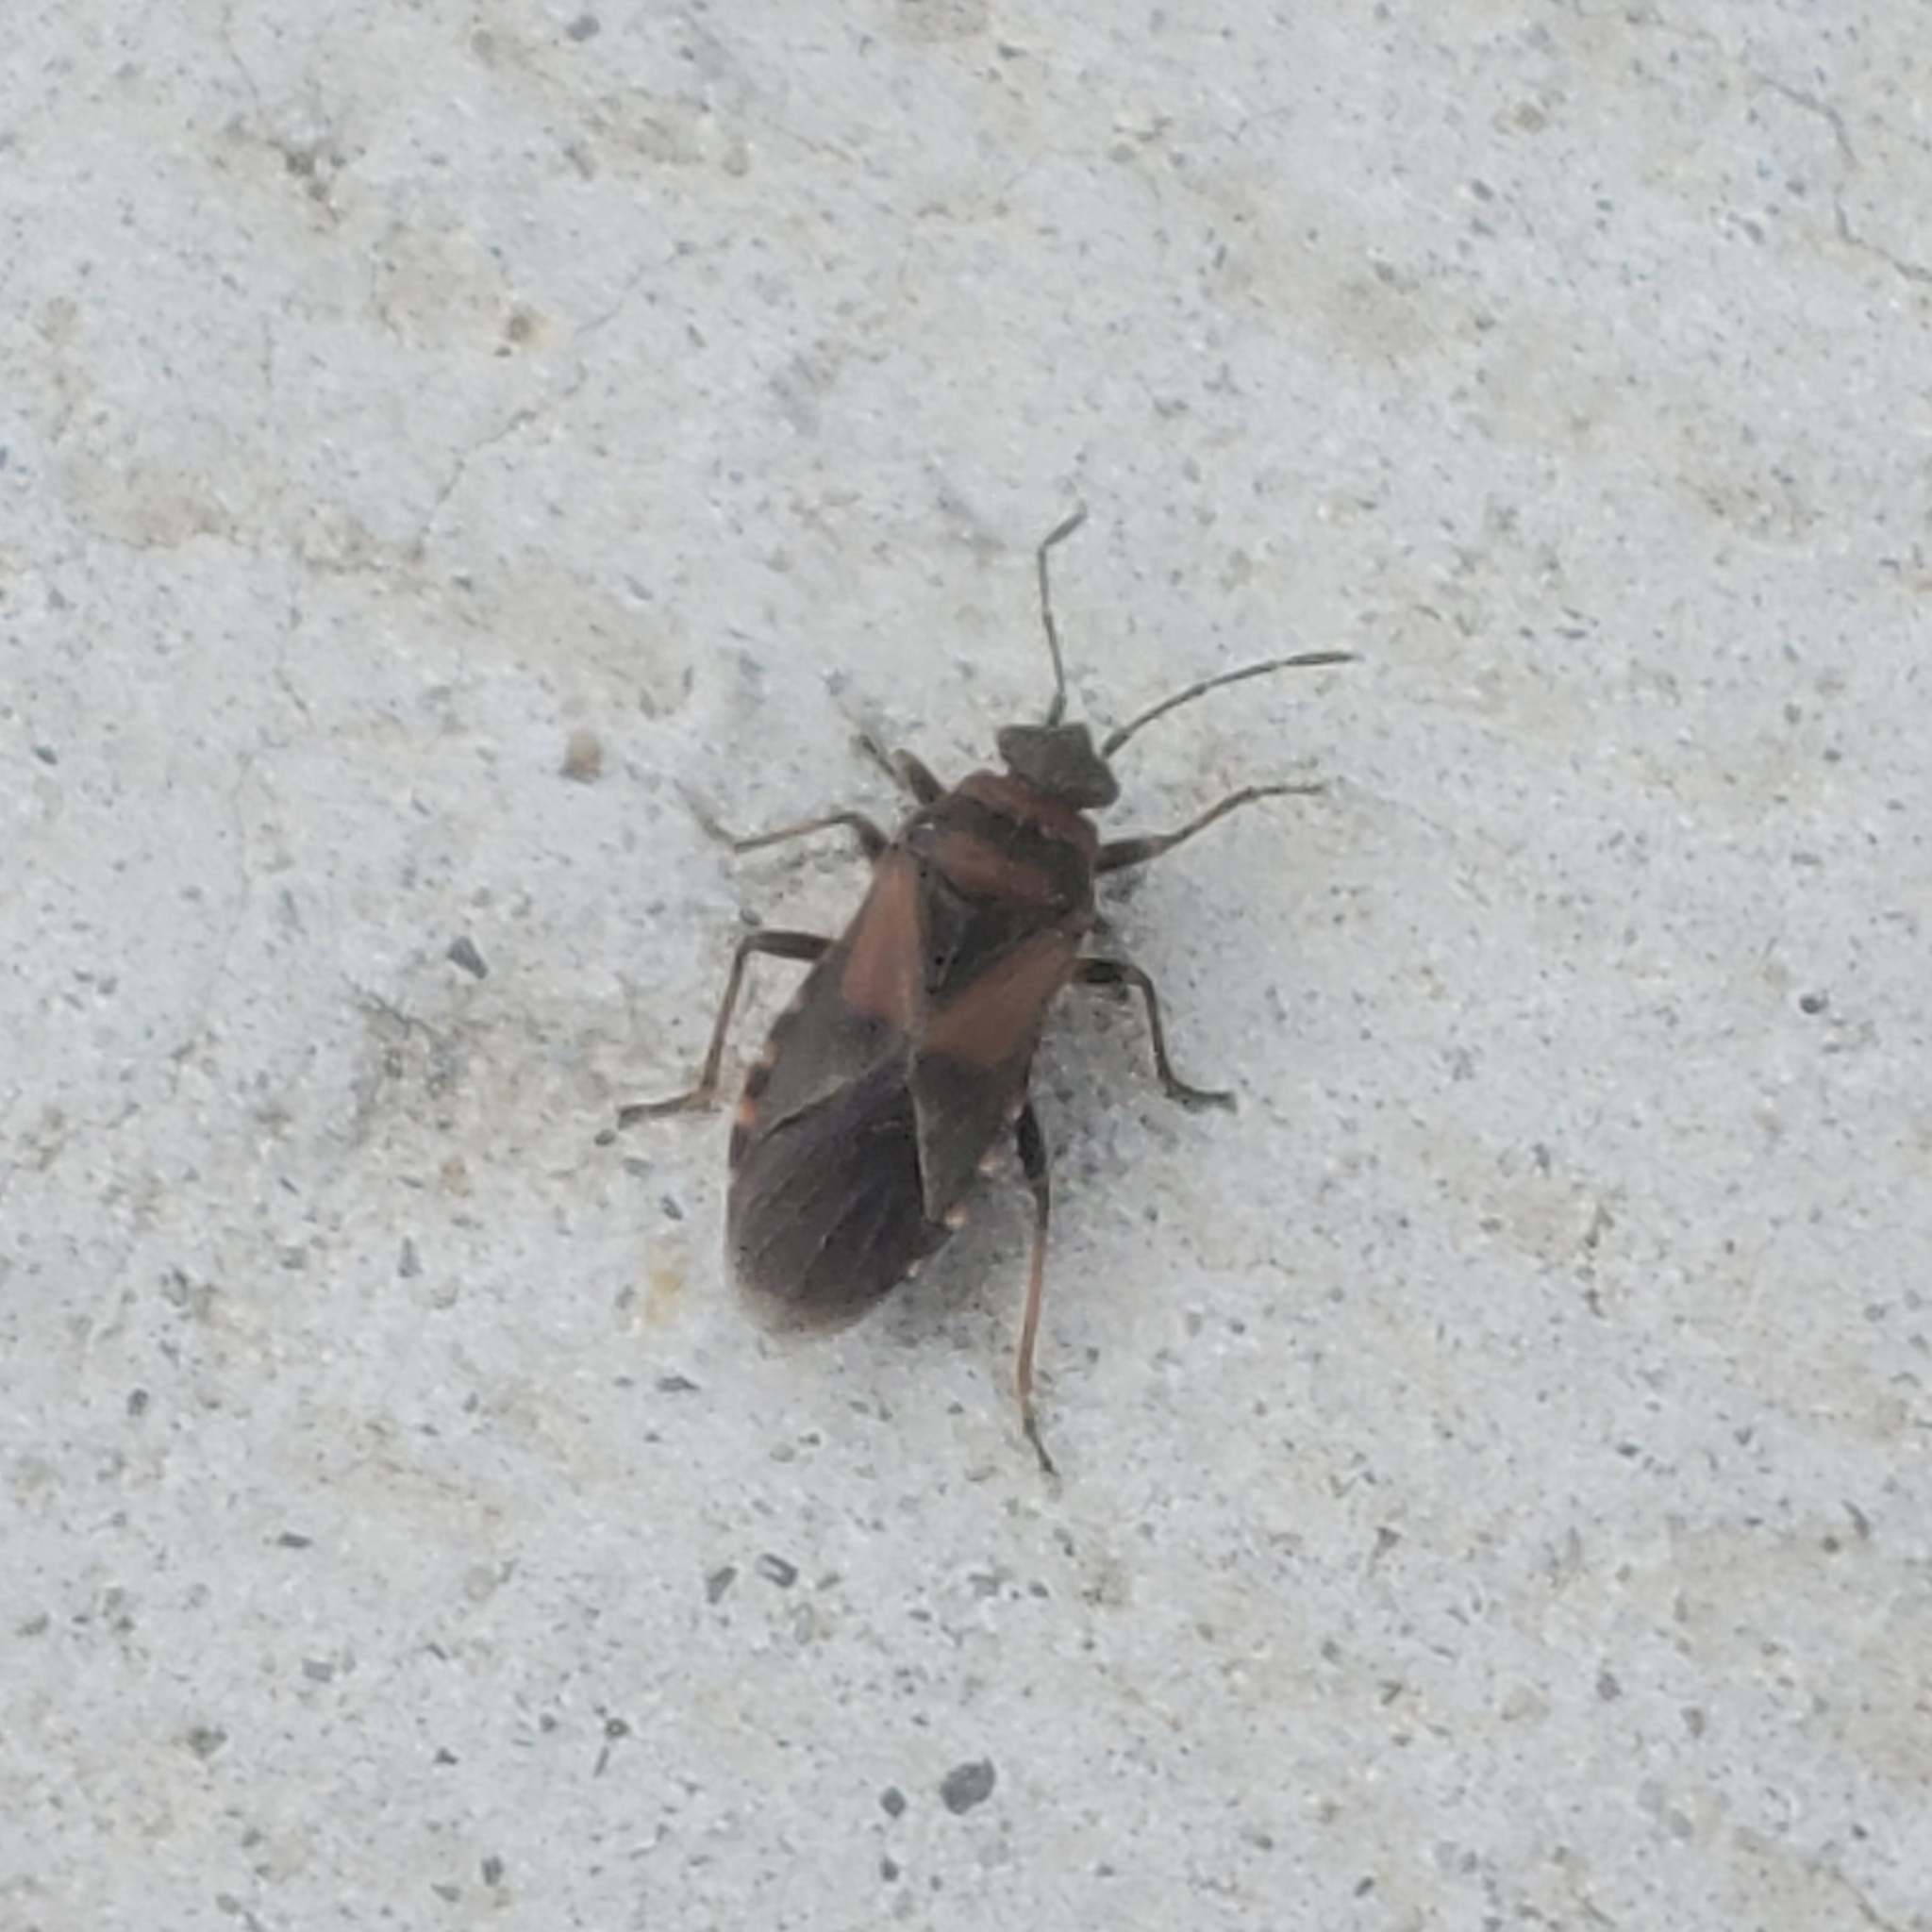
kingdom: Animalia
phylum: Arthropoda
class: Insecta
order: Hemiptera
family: Lygaeidae
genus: Arocatus
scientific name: Arocatus melanocephalus
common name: Lygaeid bug
